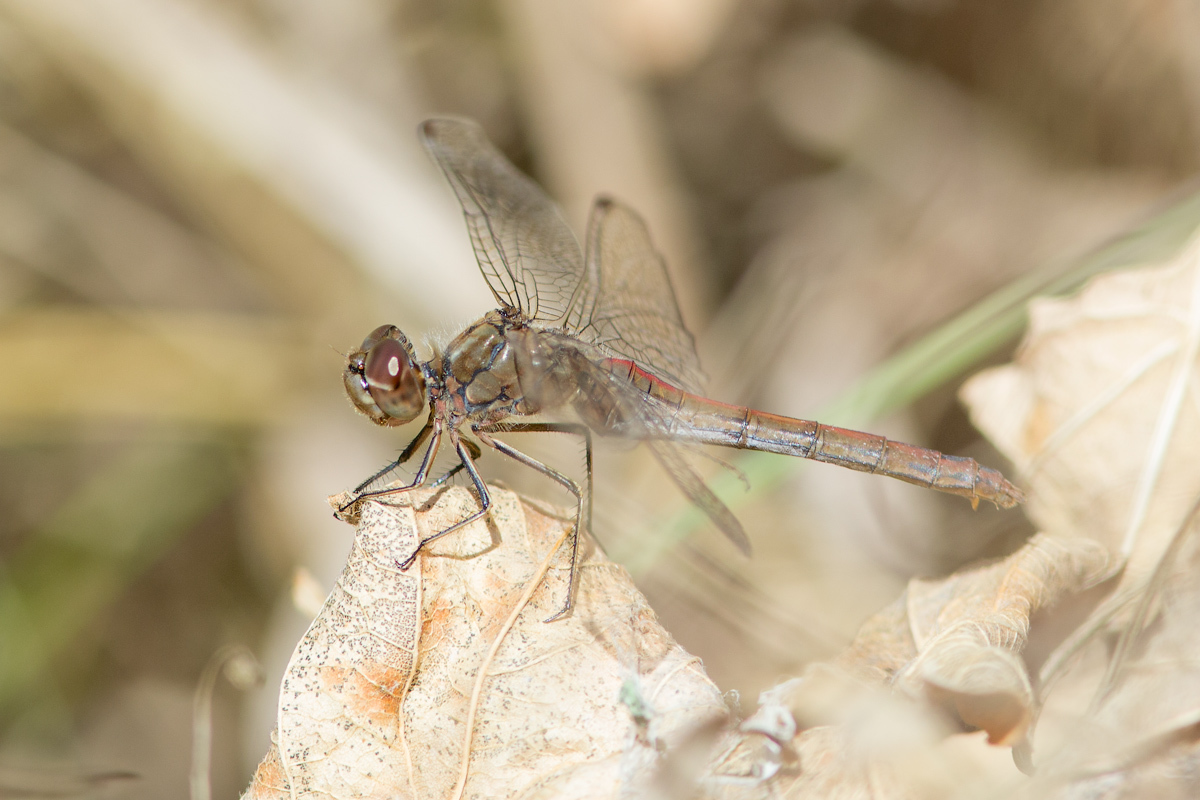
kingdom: Animalia
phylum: Arthropoda
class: Insecta
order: Odonata
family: Libellulidae
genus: Sympetrum
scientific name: Sympetrum vulgatum
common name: Vagrant darter
